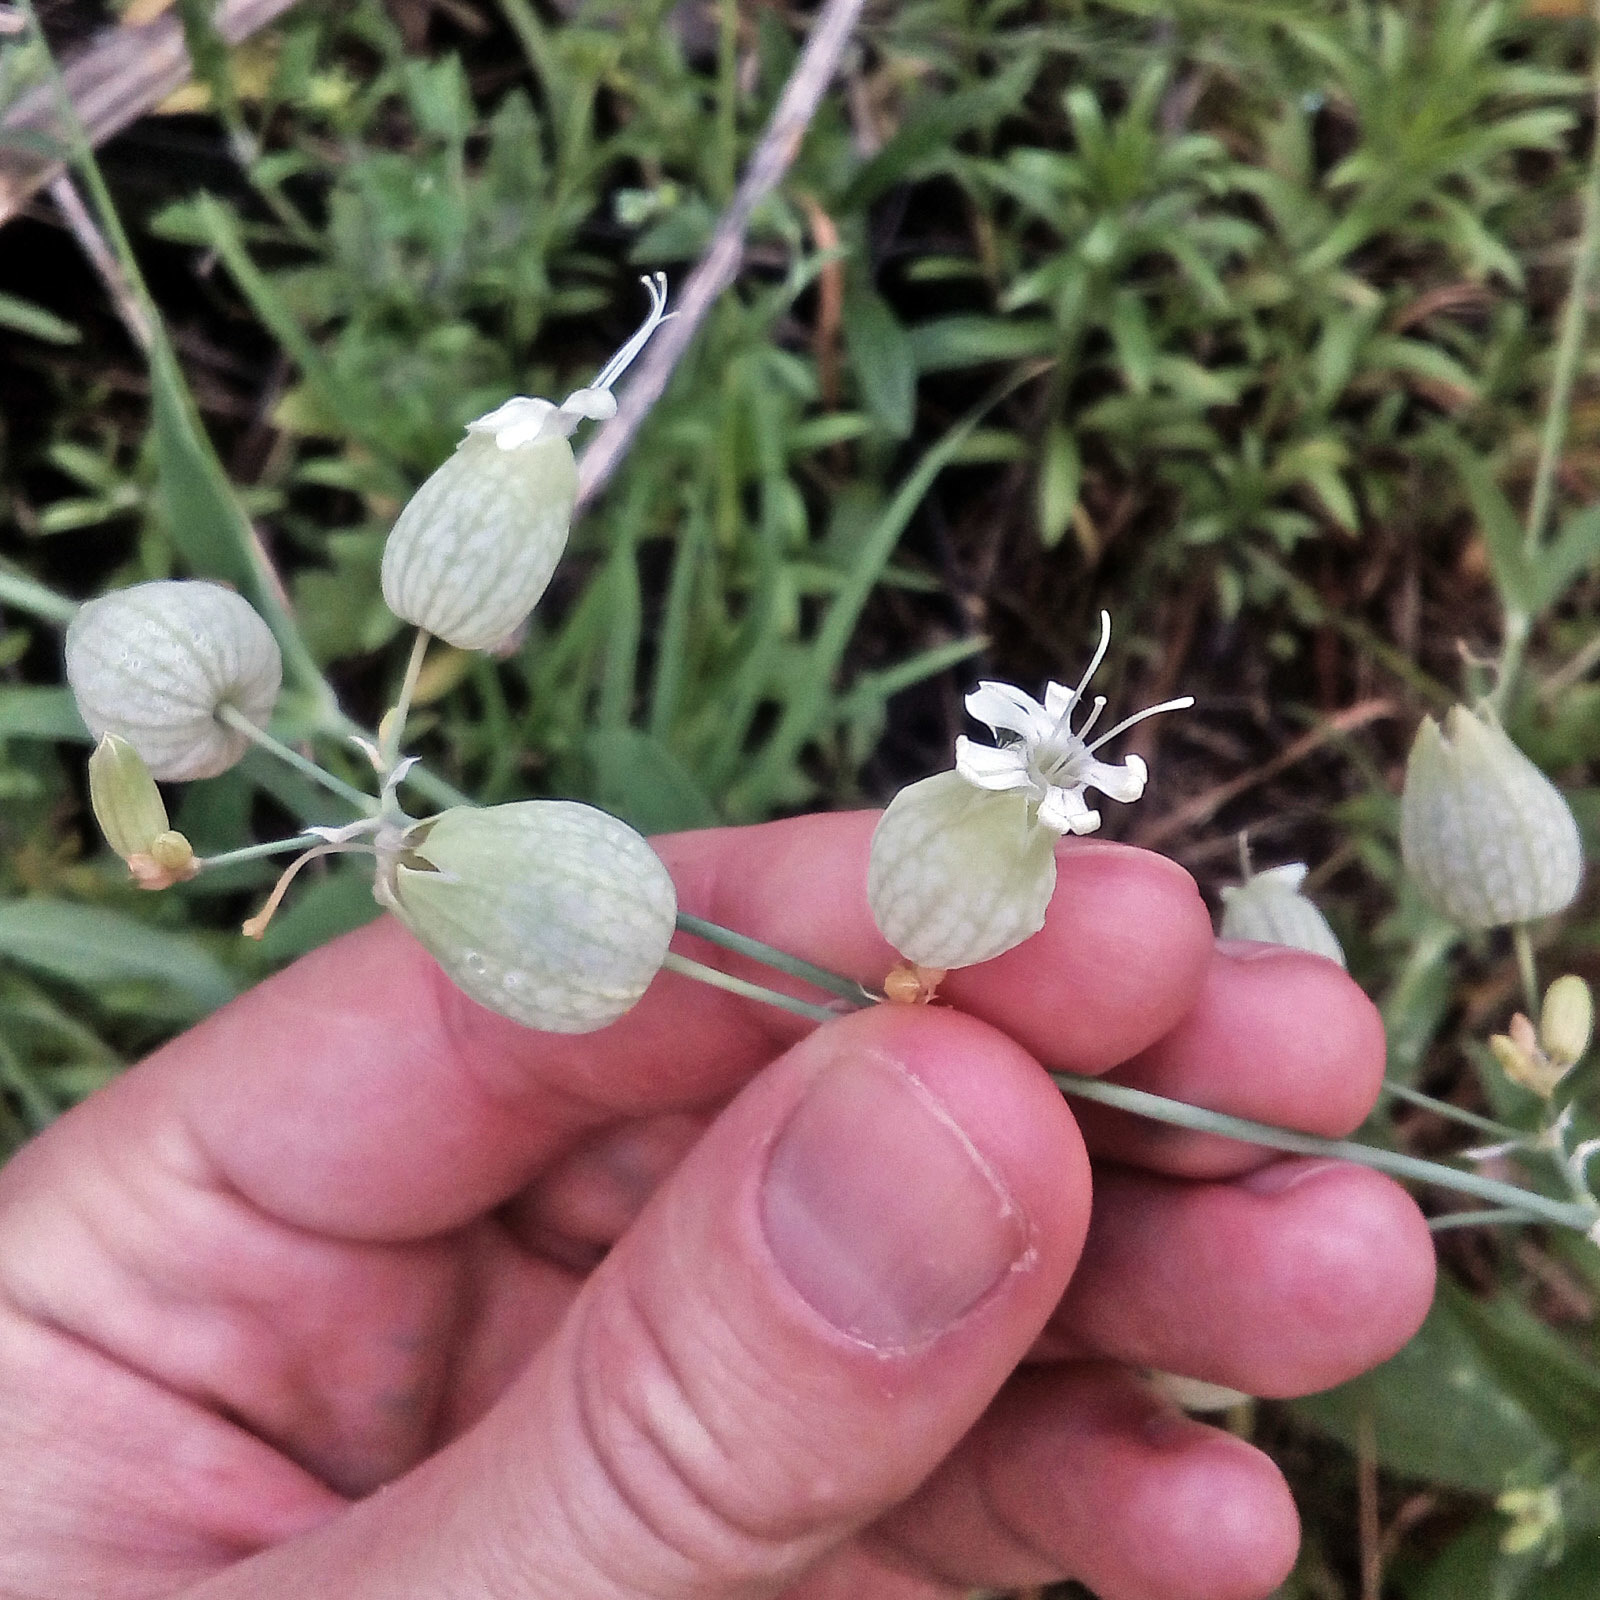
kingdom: Plantae
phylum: Tracheophyta
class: Magnoliopsida
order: Caryophyllales
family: Caryophyllaceae
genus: Silene
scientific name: Silene vulgaris
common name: Bladder campion
